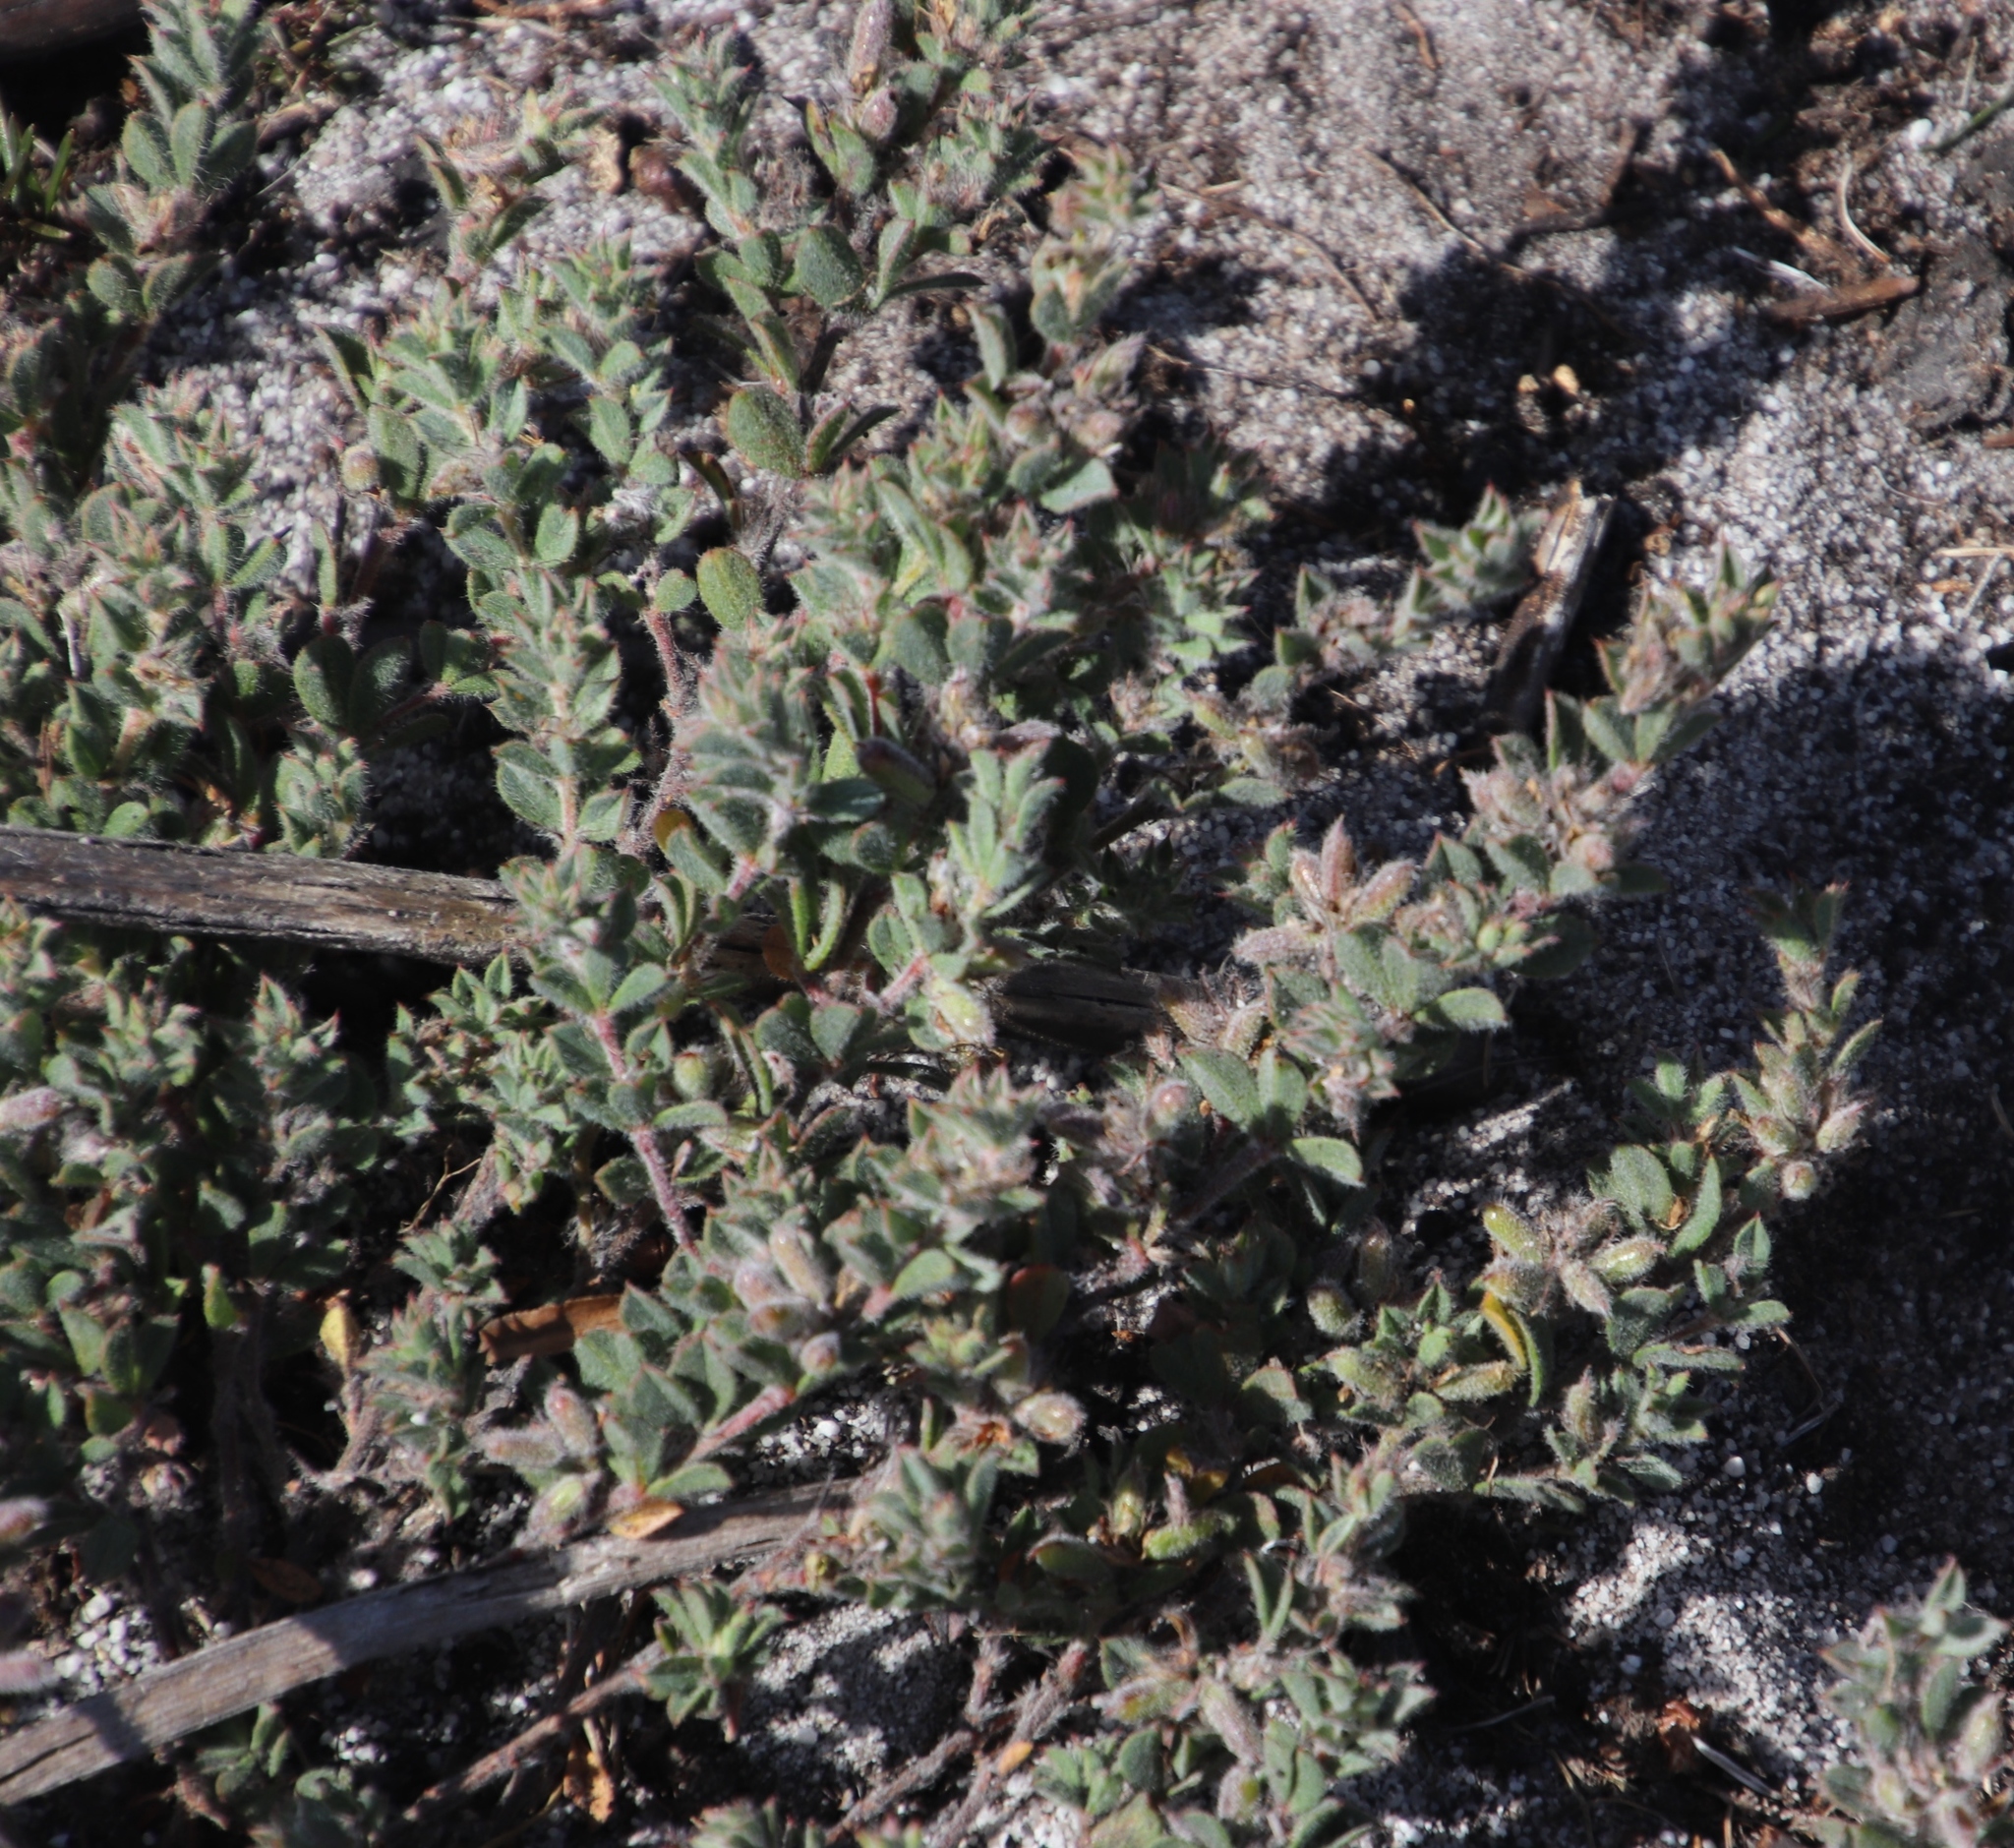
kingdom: Plantae
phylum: Tracheophyta
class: Magnoliopsida
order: Fabales
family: Fabaceae
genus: Indigofera
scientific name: Indigofera glomerata
